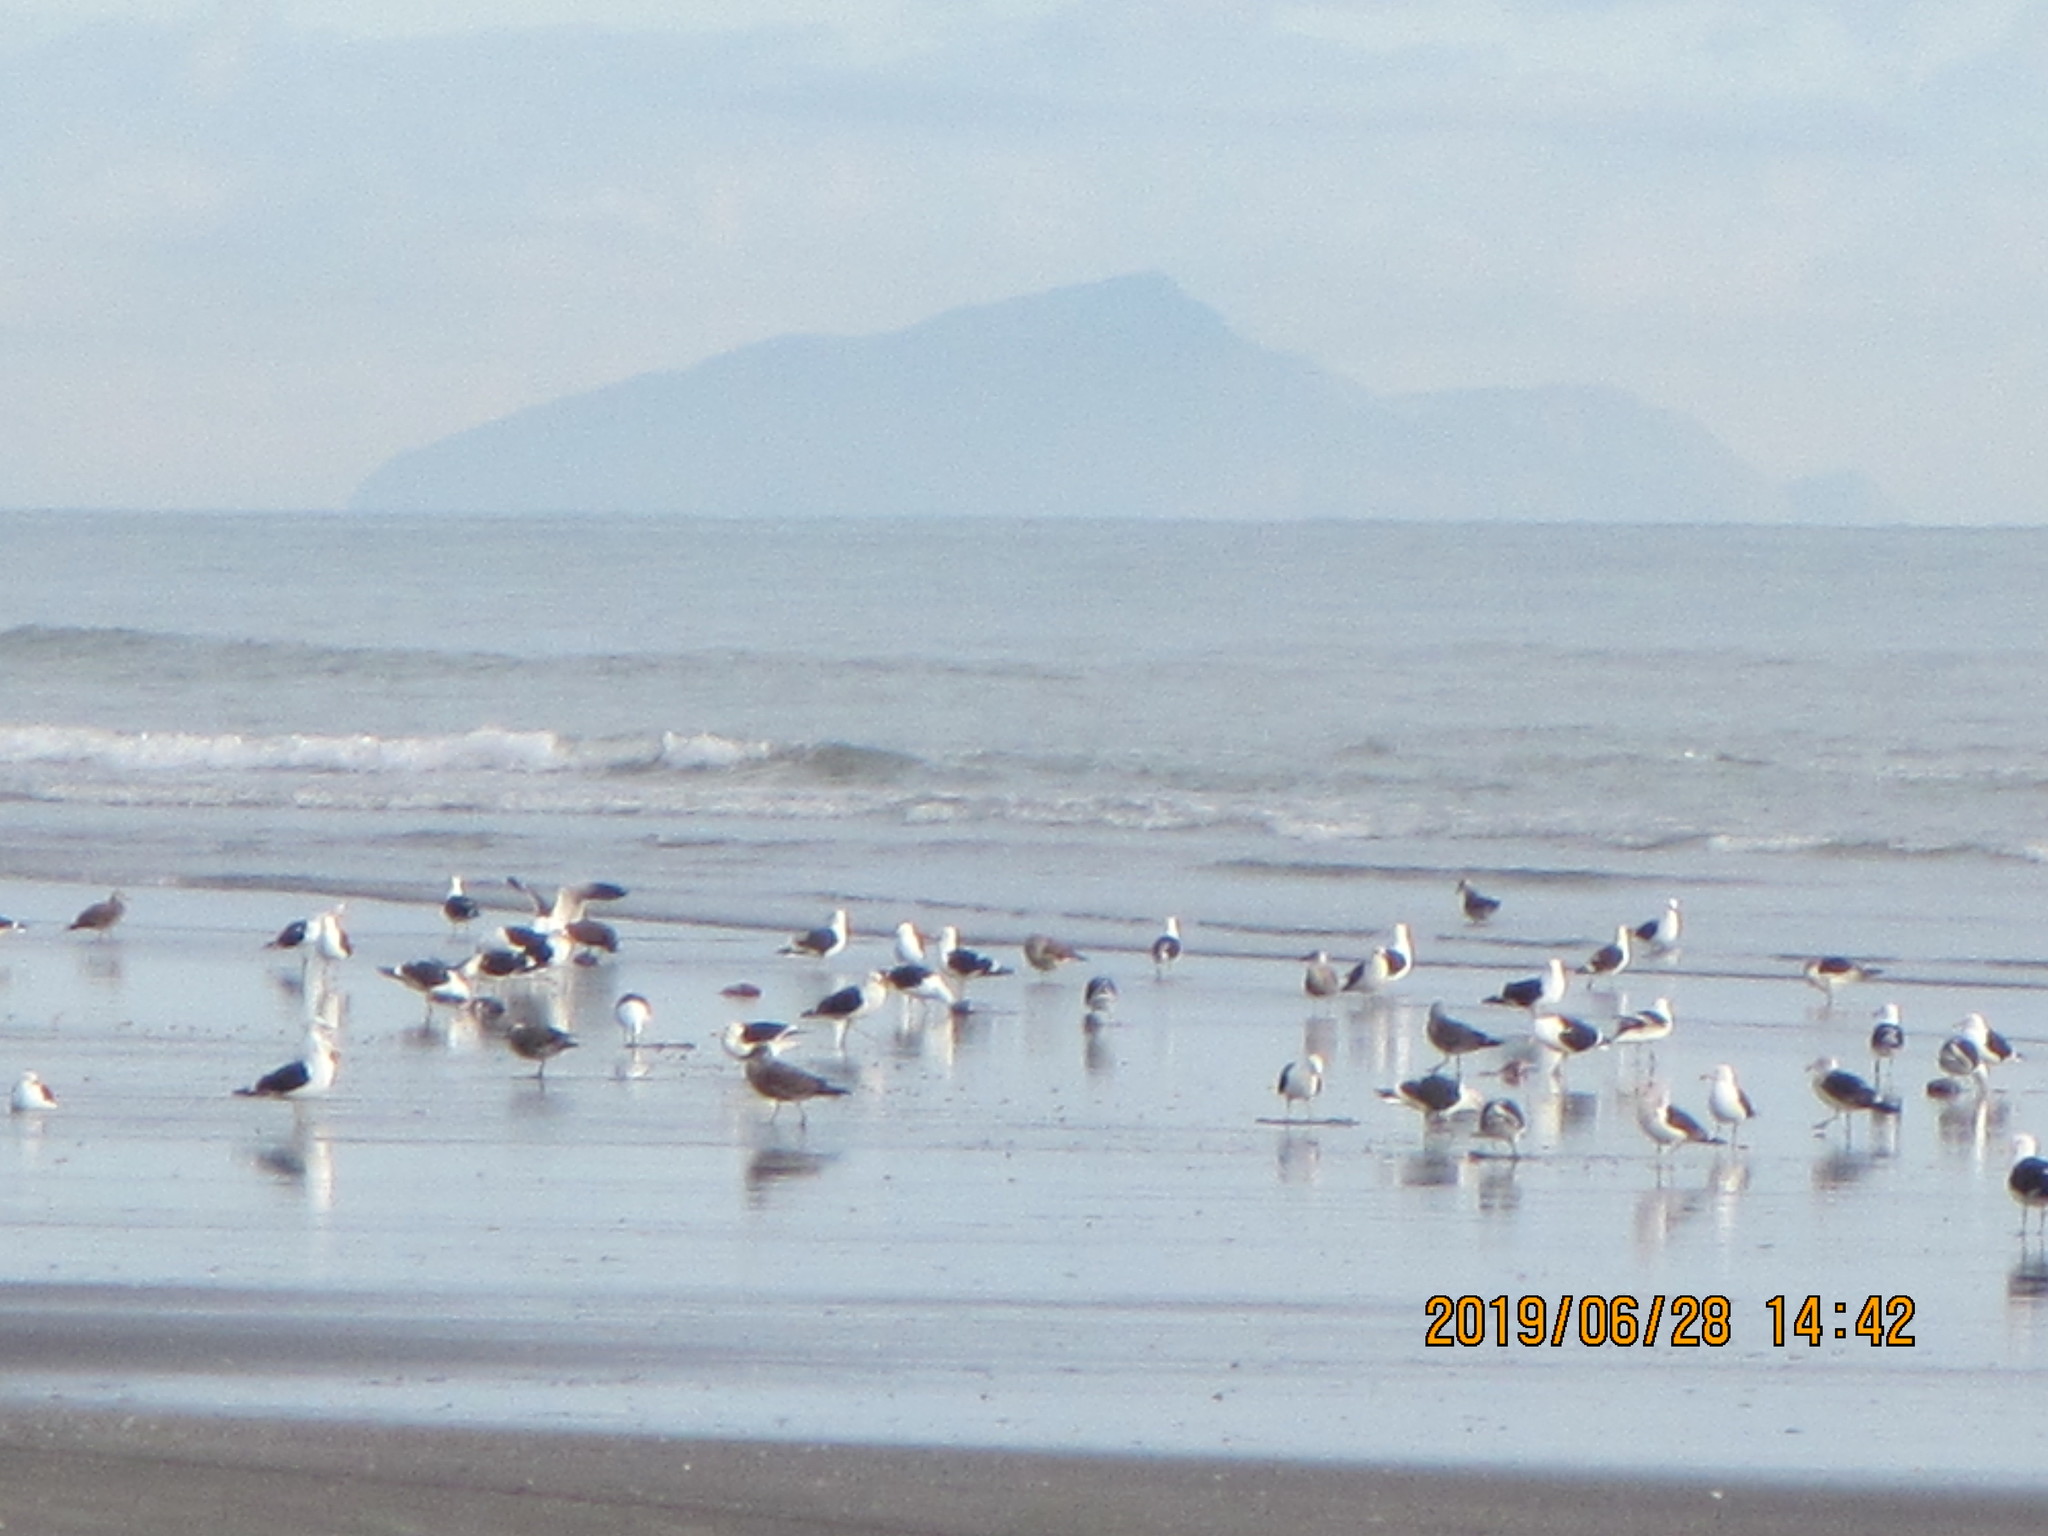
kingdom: Animalia
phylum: Chordata
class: Aves
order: Charadriiformes
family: Laridae
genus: Larus
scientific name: Larus dominicanus
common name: Kelp gull
